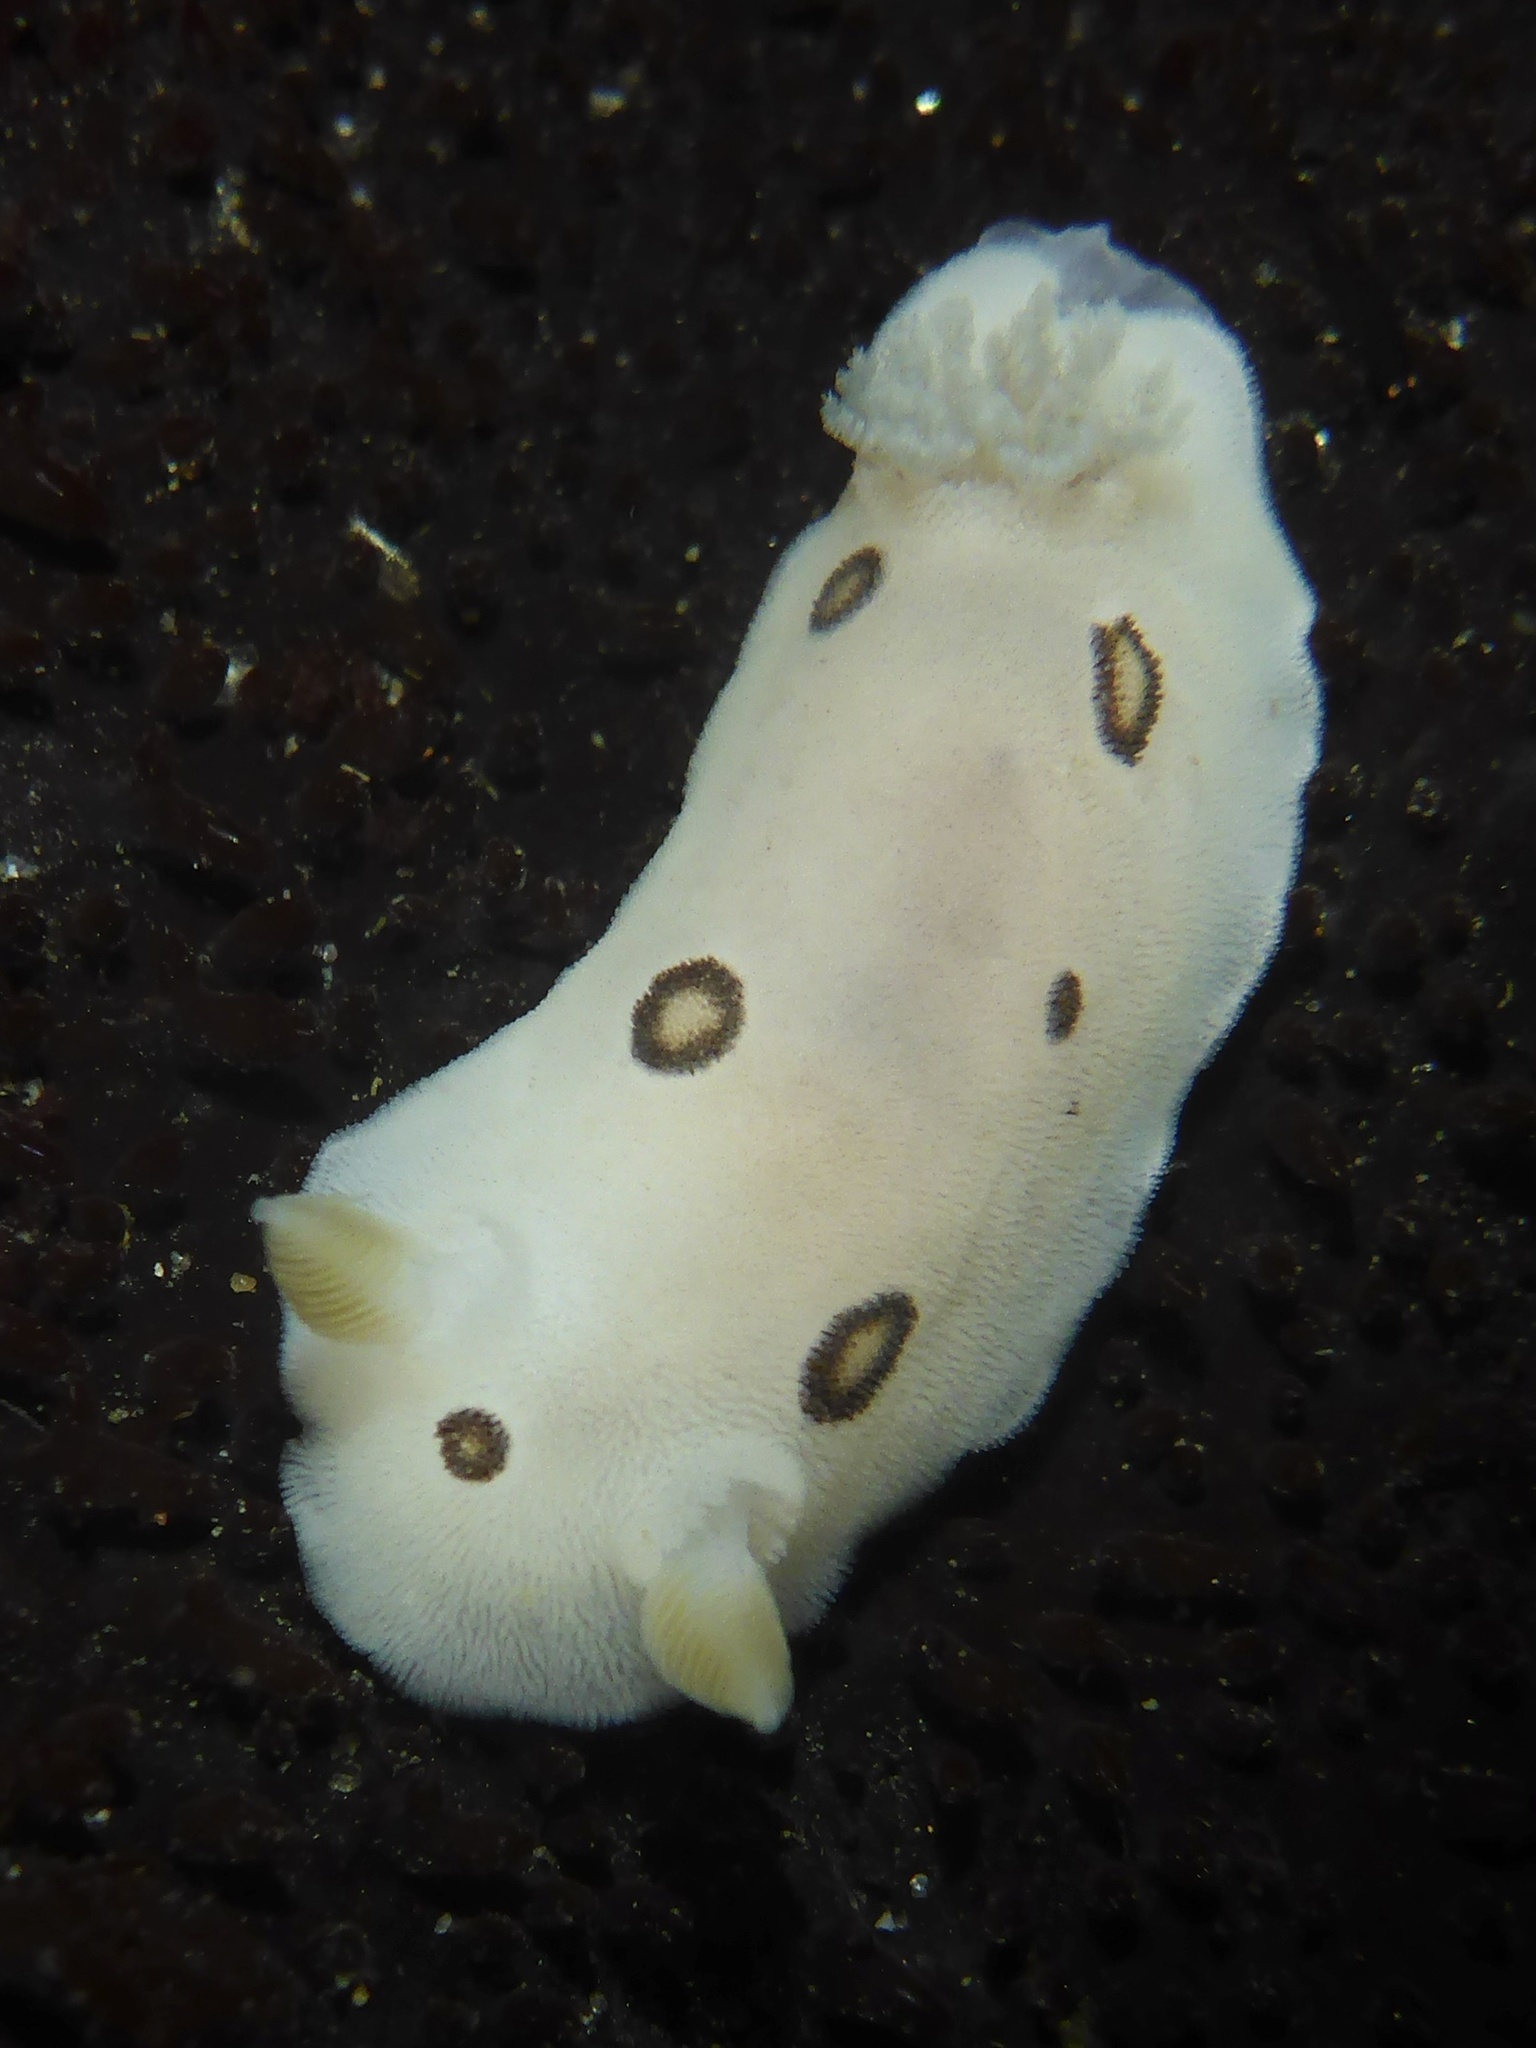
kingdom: Animalia
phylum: Mollusca
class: Gastropoda
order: Nudibranchia
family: Discodorididae
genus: Diaulula
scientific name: Diaulula sandiegensis
